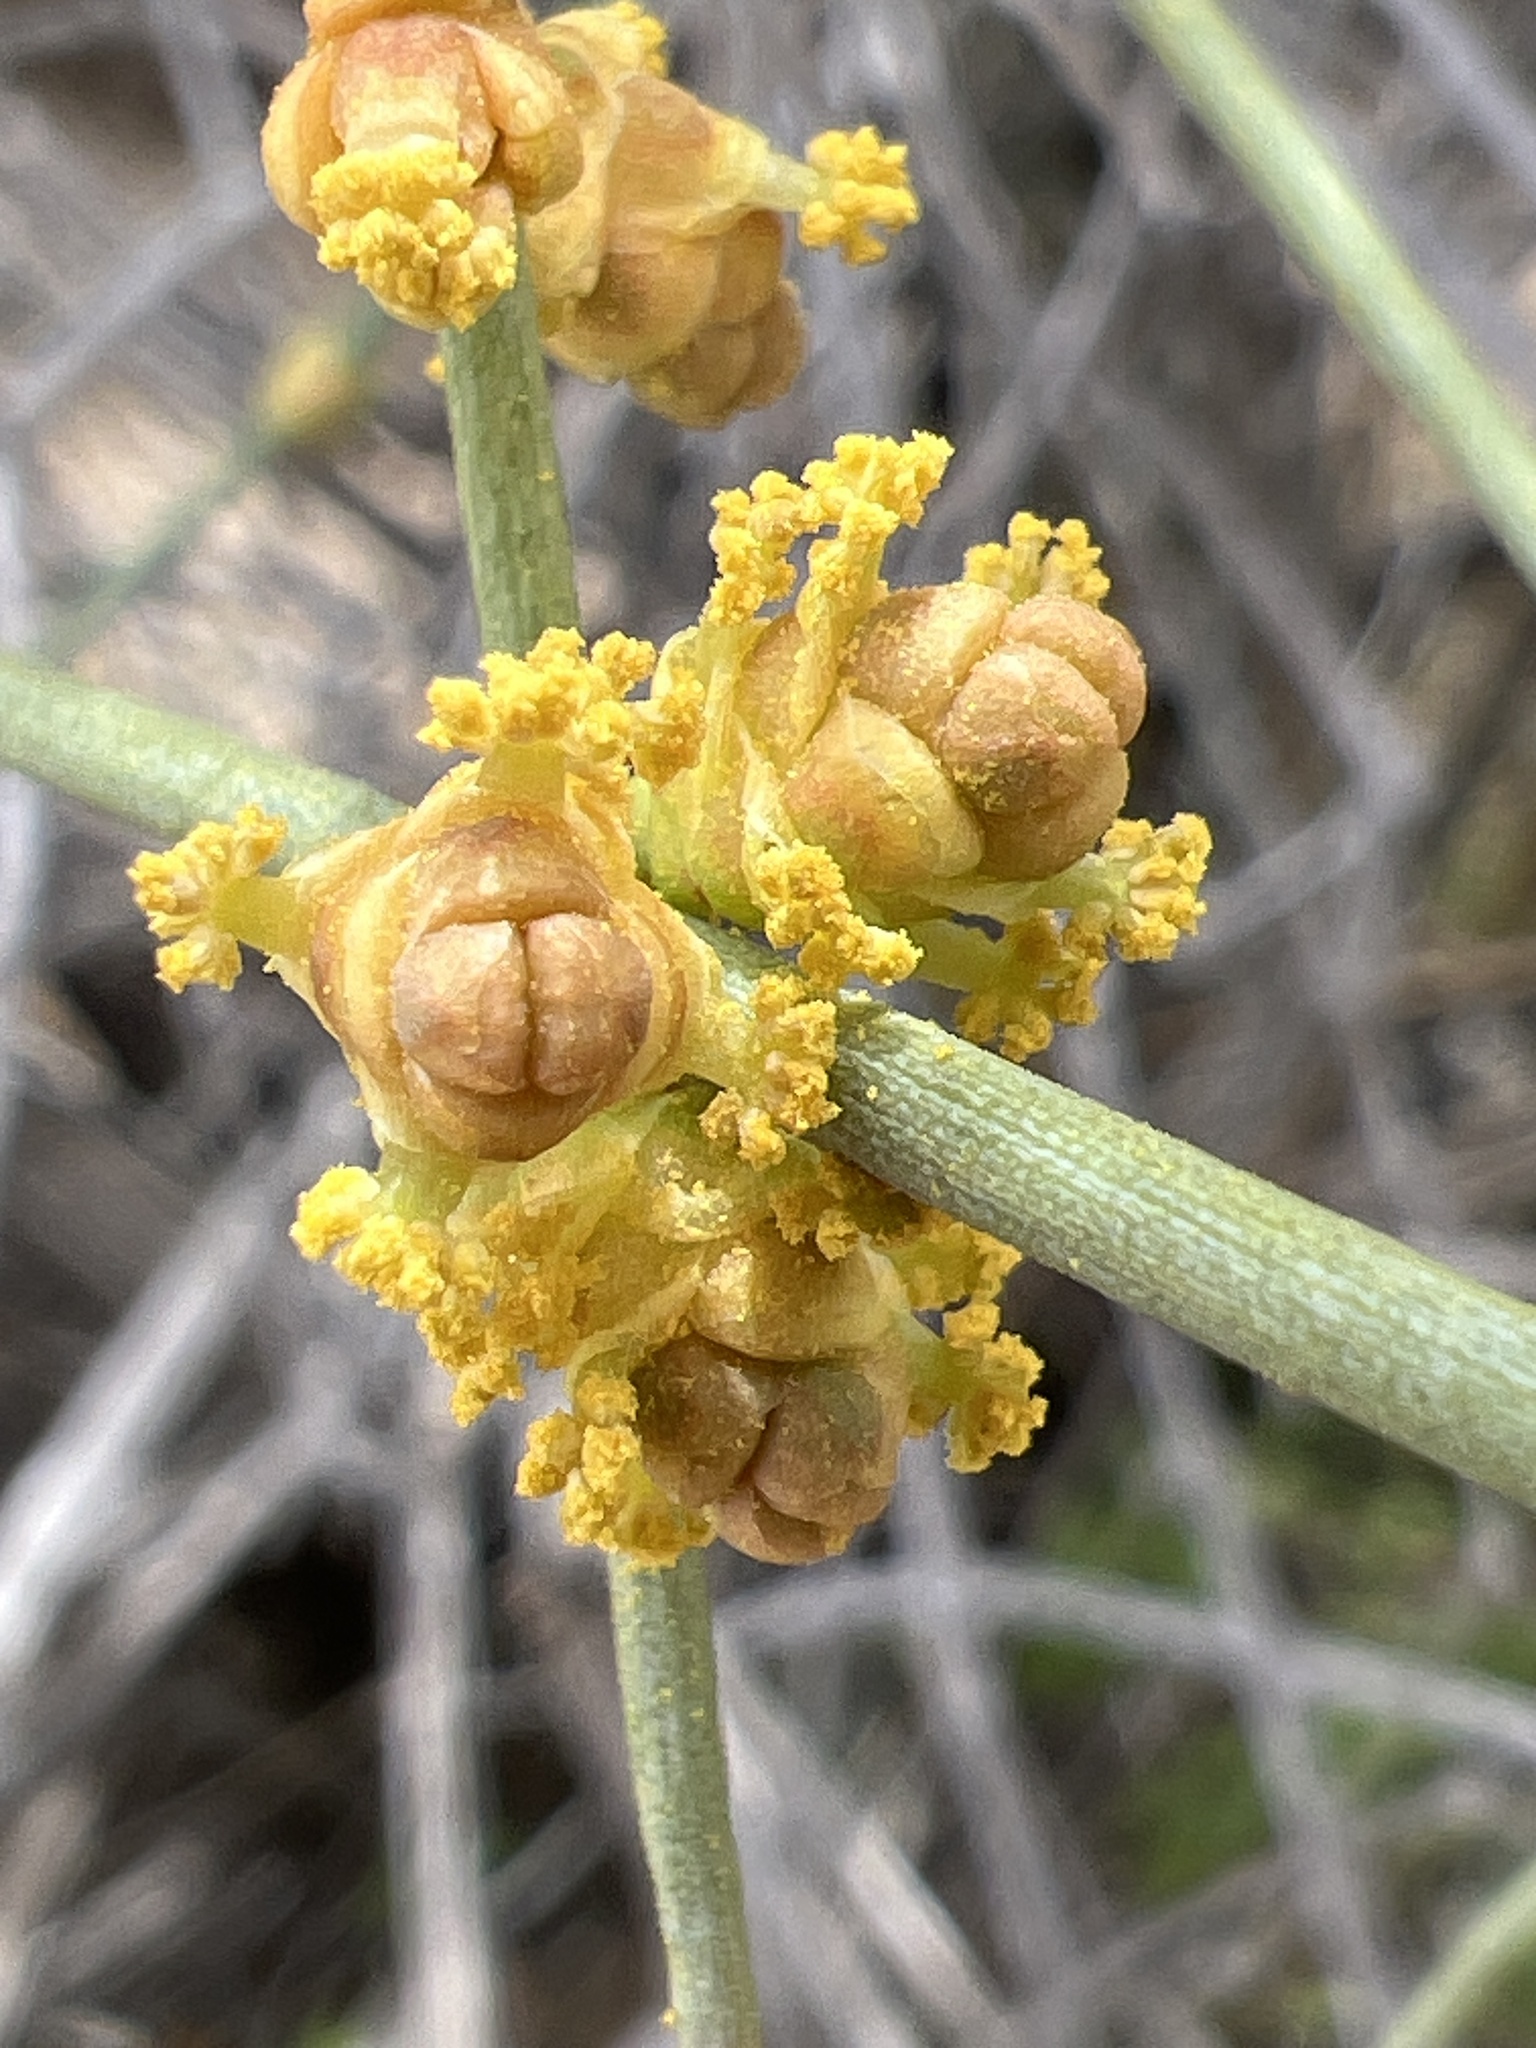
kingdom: Plantae
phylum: Tracheophyta
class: Gnetopsida
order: Ephedrales
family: Ephedraceae
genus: Ephedra
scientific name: Ephedra aspera
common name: Boundary ephedra
